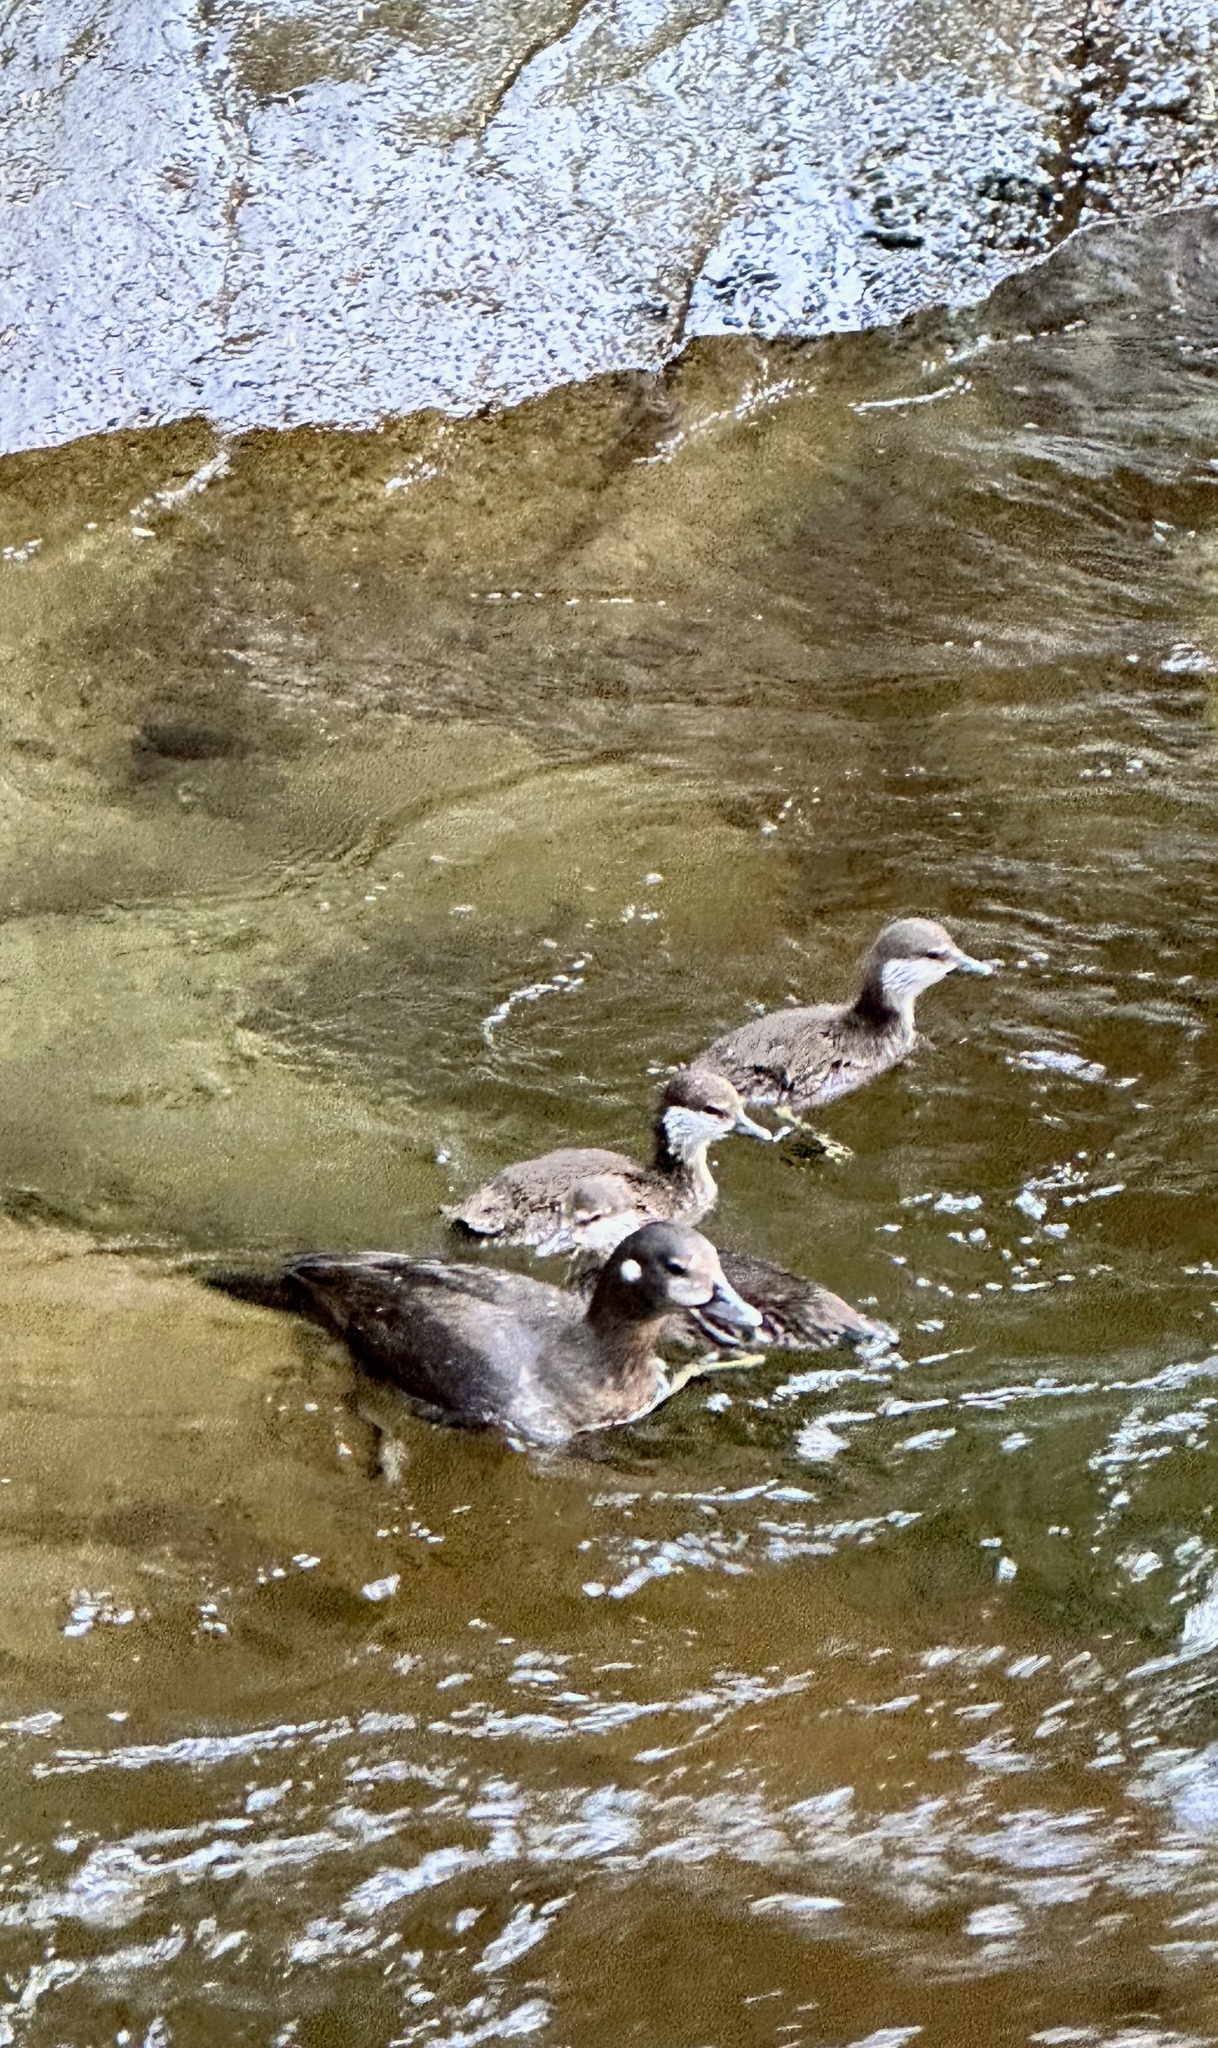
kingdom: Animalia
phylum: Chordata
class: Aves
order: Anseriformes
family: Anatidae
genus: Histrionicus
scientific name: Histrionicus histrionicus
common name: Harlequin duck
